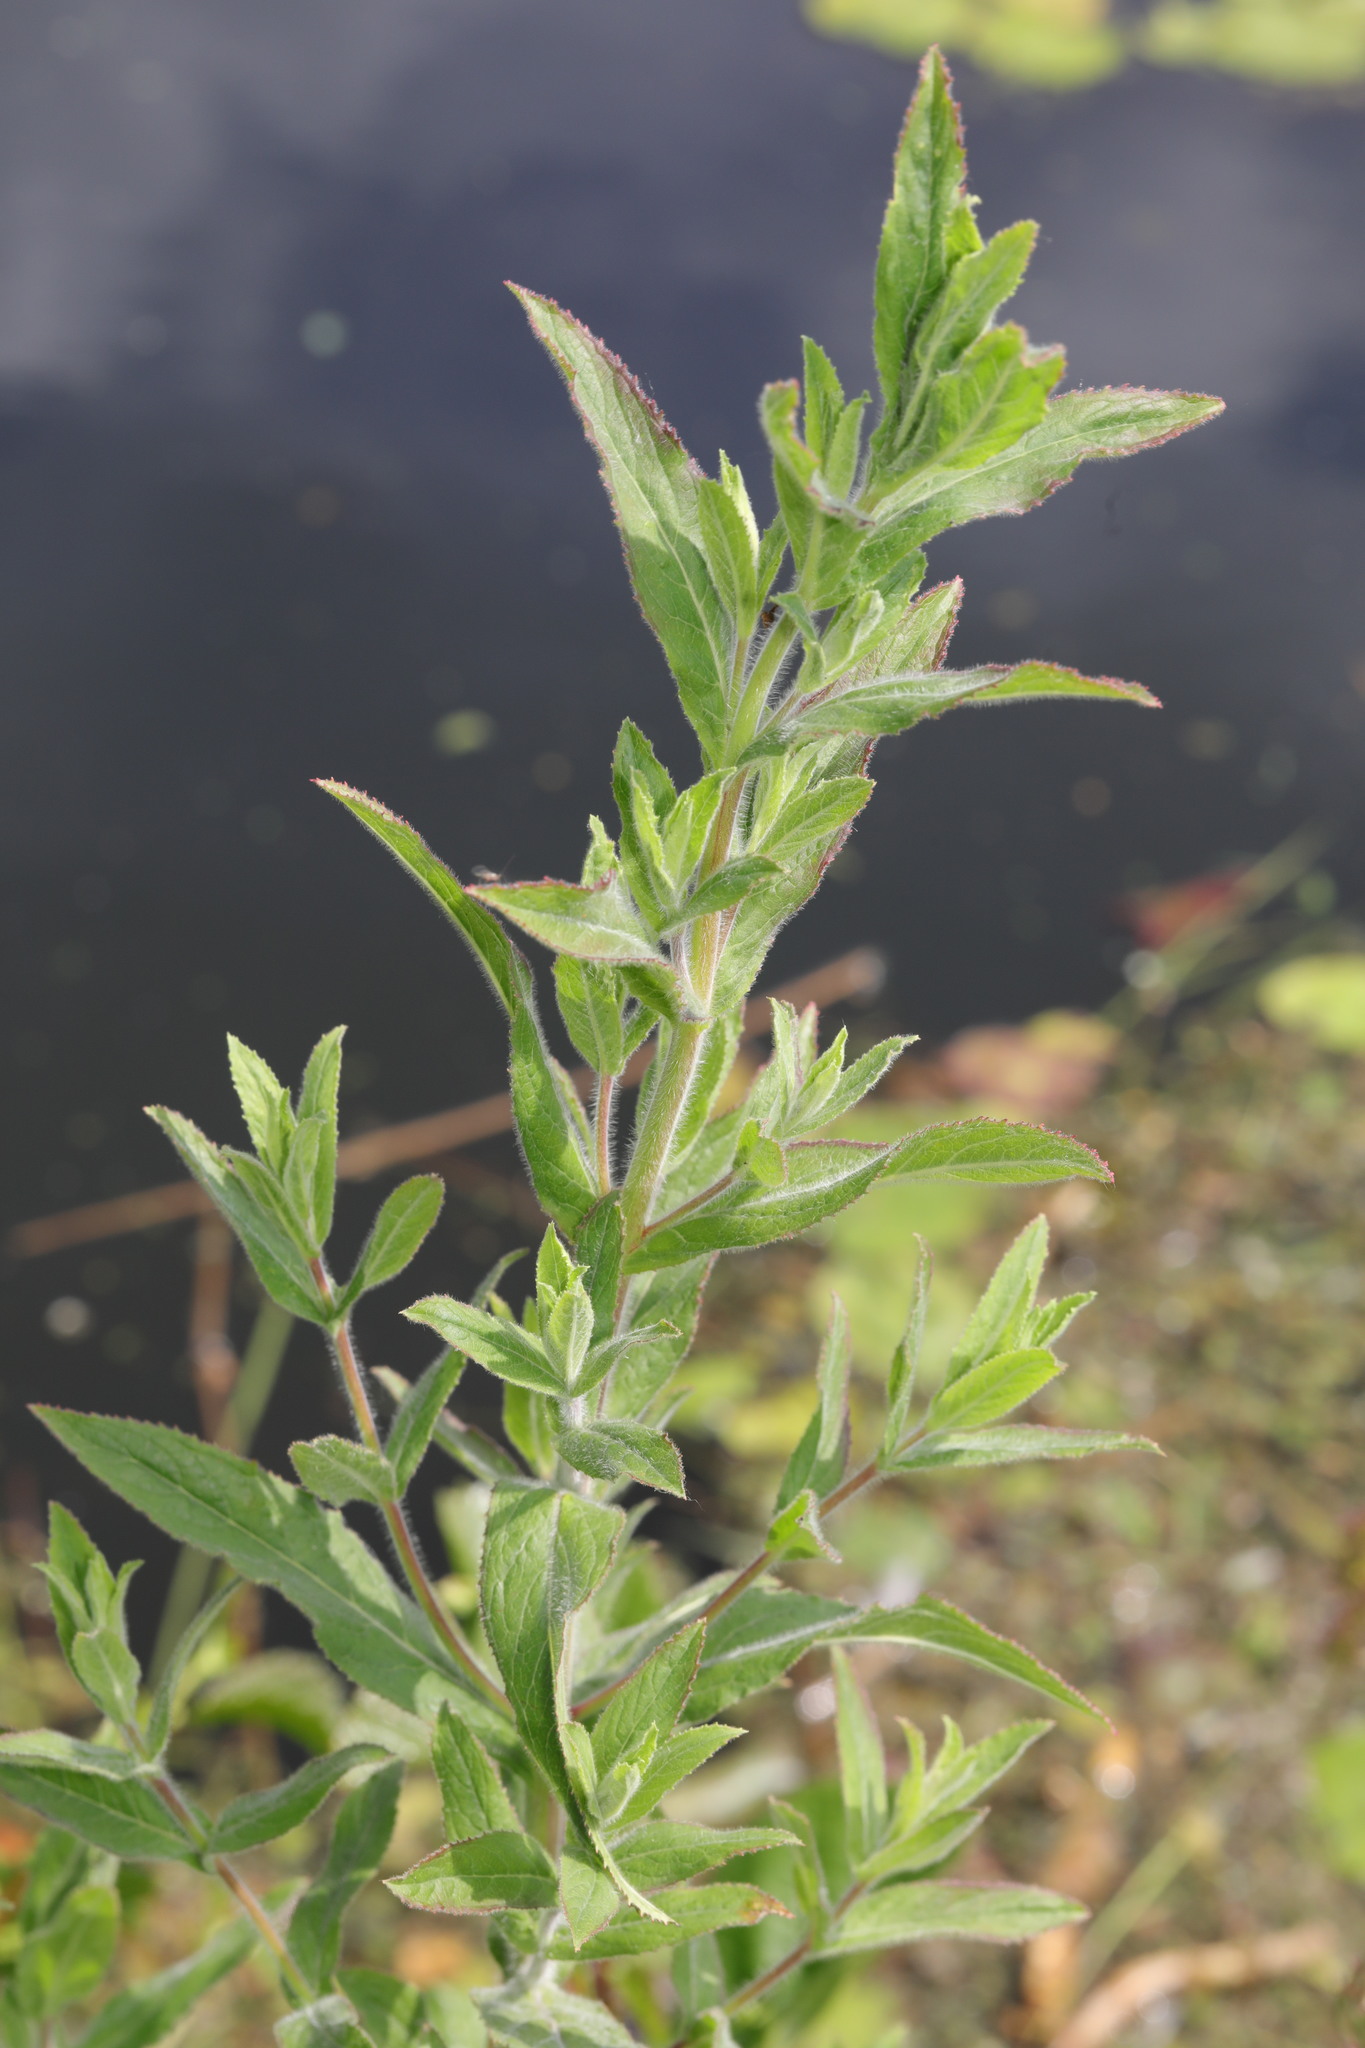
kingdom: Plantae
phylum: Tracheophyta
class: Magnoliopsida
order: Myrtales
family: Onagraceae
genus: Epilobium
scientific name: Epilobium hirsutum
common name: Great willowherb
